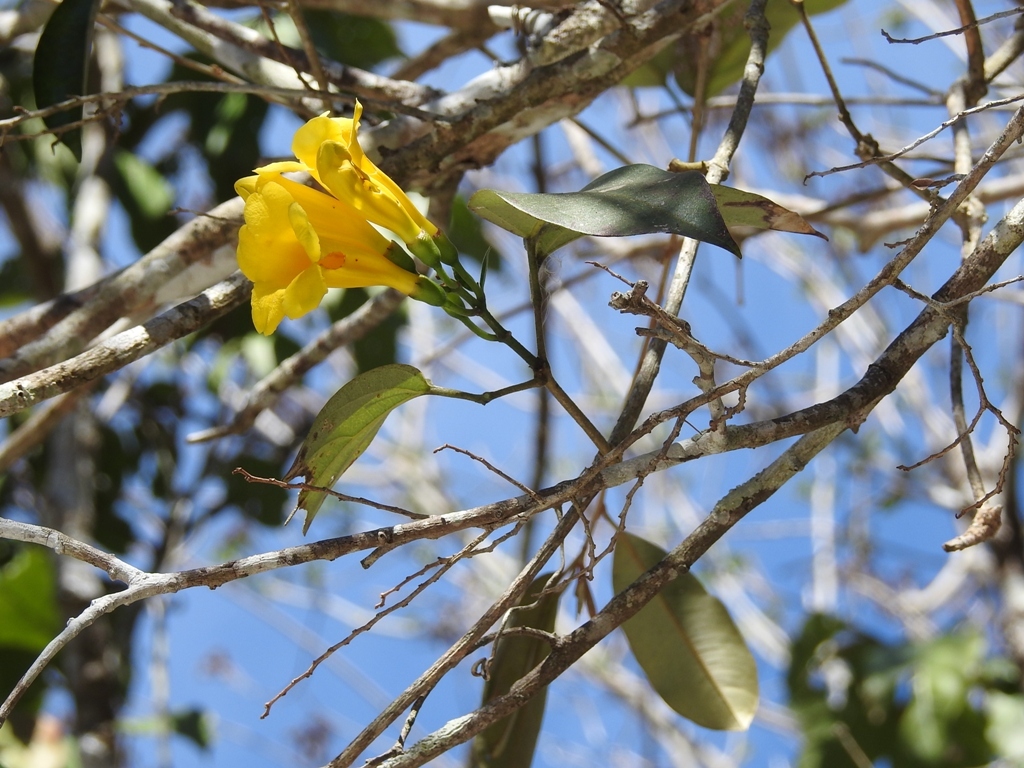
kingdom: Plantae
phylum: Tracheophyta
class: Magnoliopsida
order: Lamiales
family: Bignoniaceae
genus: Anemopaegma
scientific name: Anemopaegma chrysanthum
